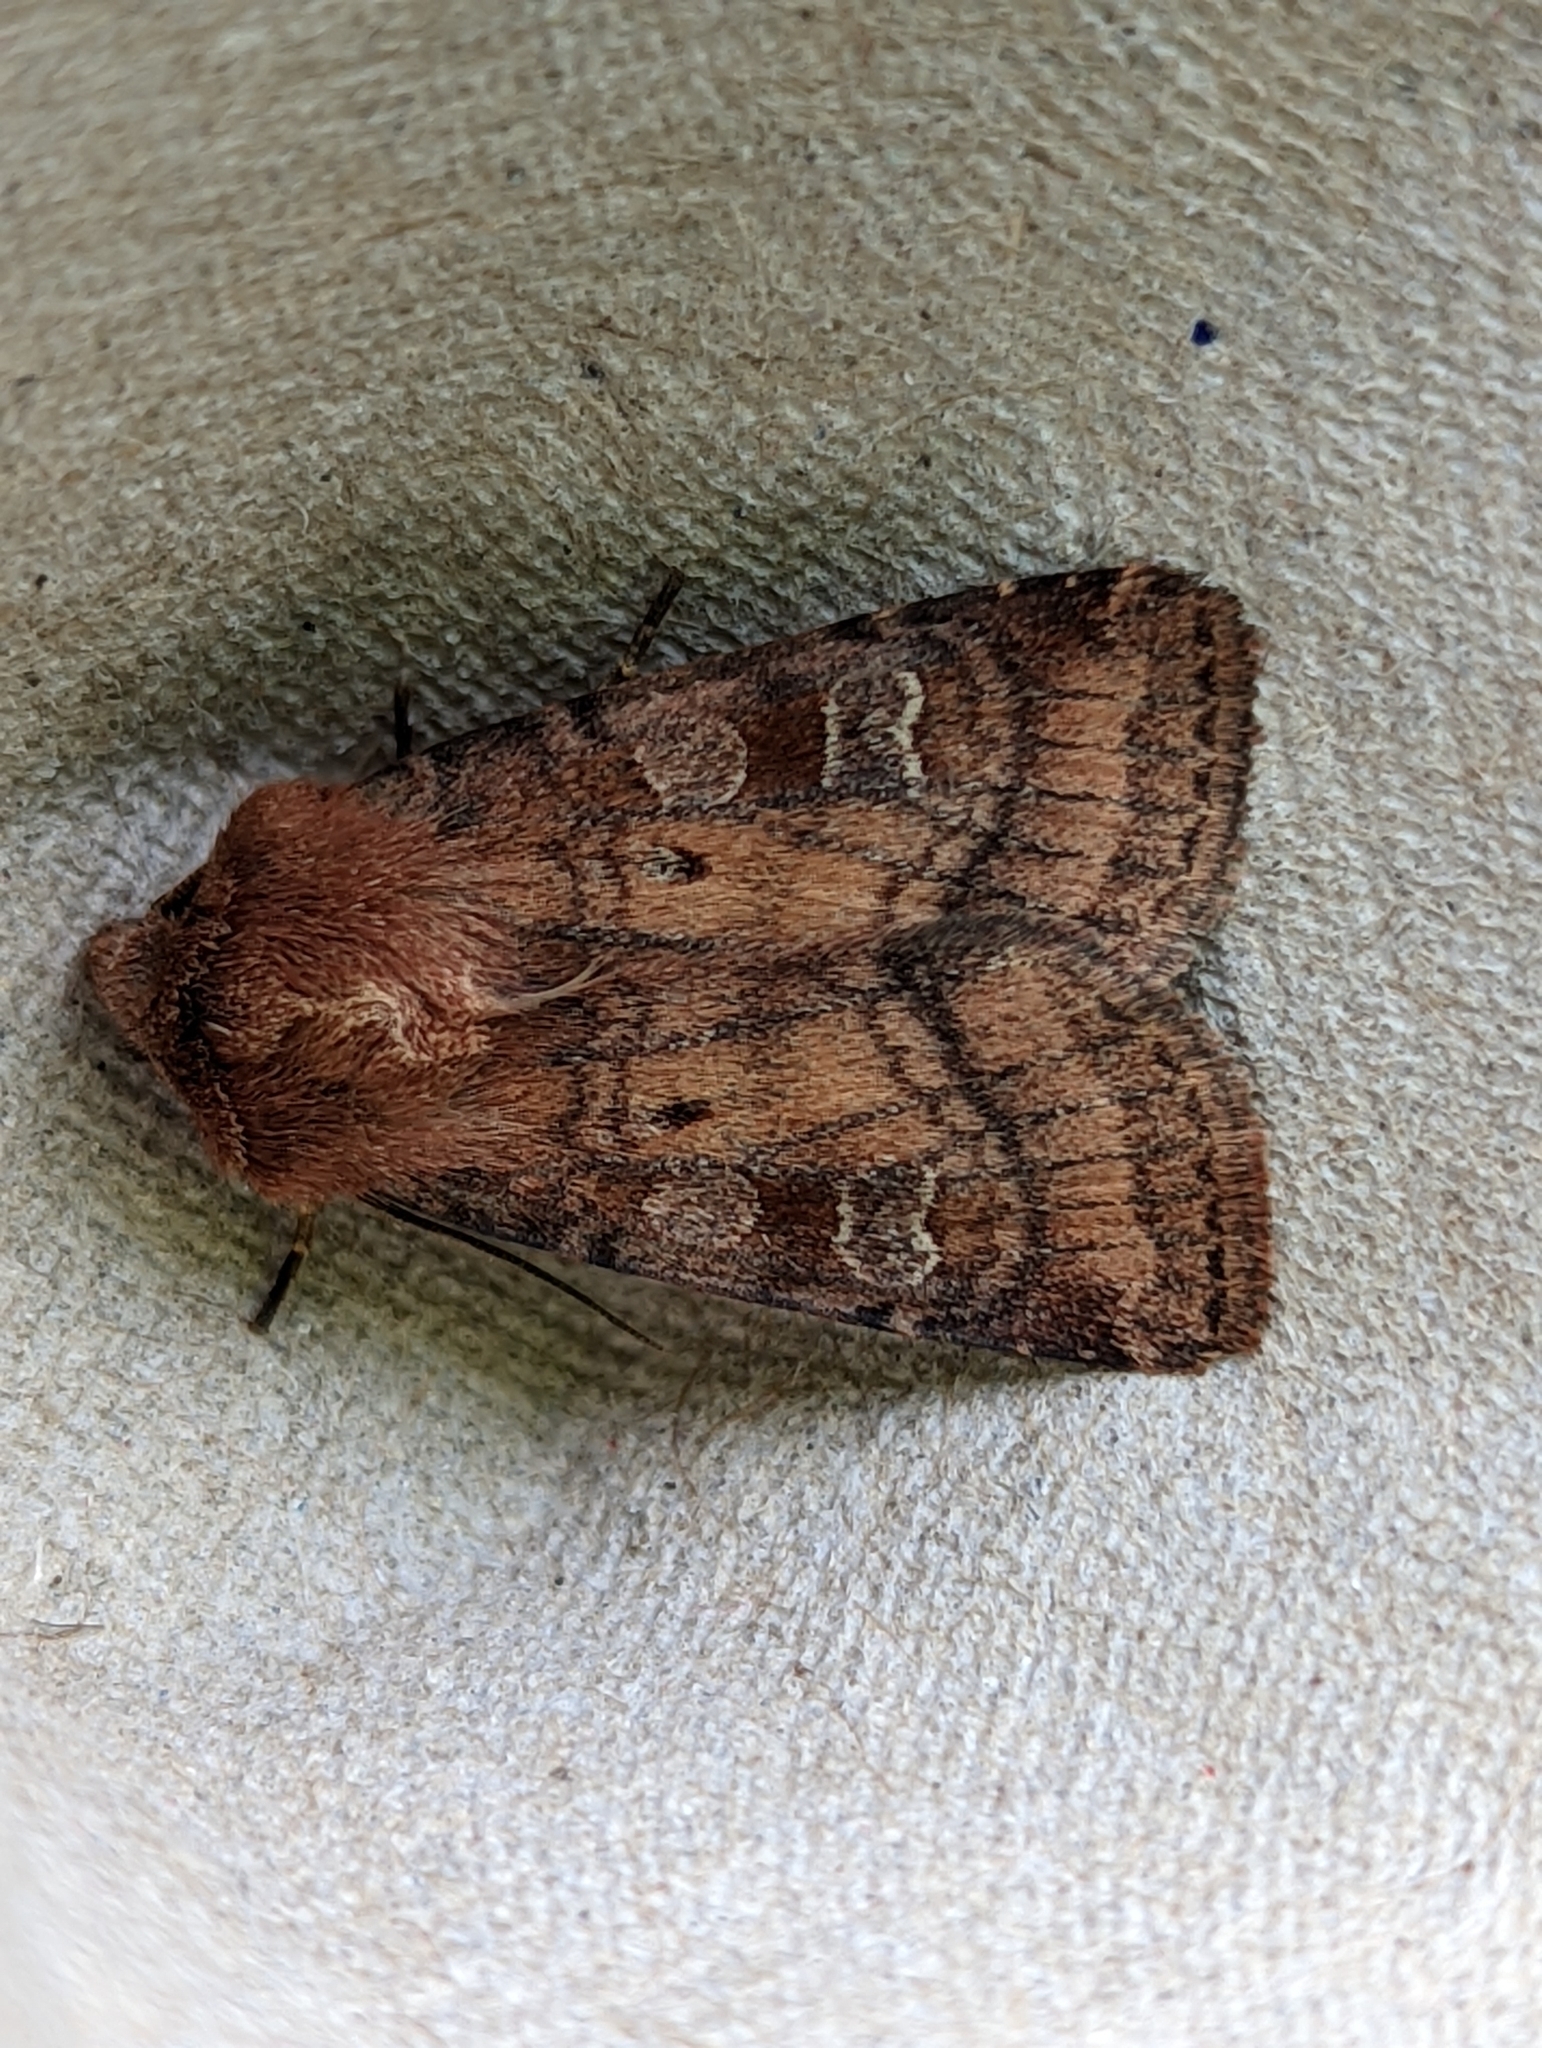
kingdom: Animalia
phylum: Arthropoda
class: Insecta
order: Lepidoptera
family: Noctuidae
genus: Diarsia
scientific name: Diarsia rubi
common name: Small square-spot
